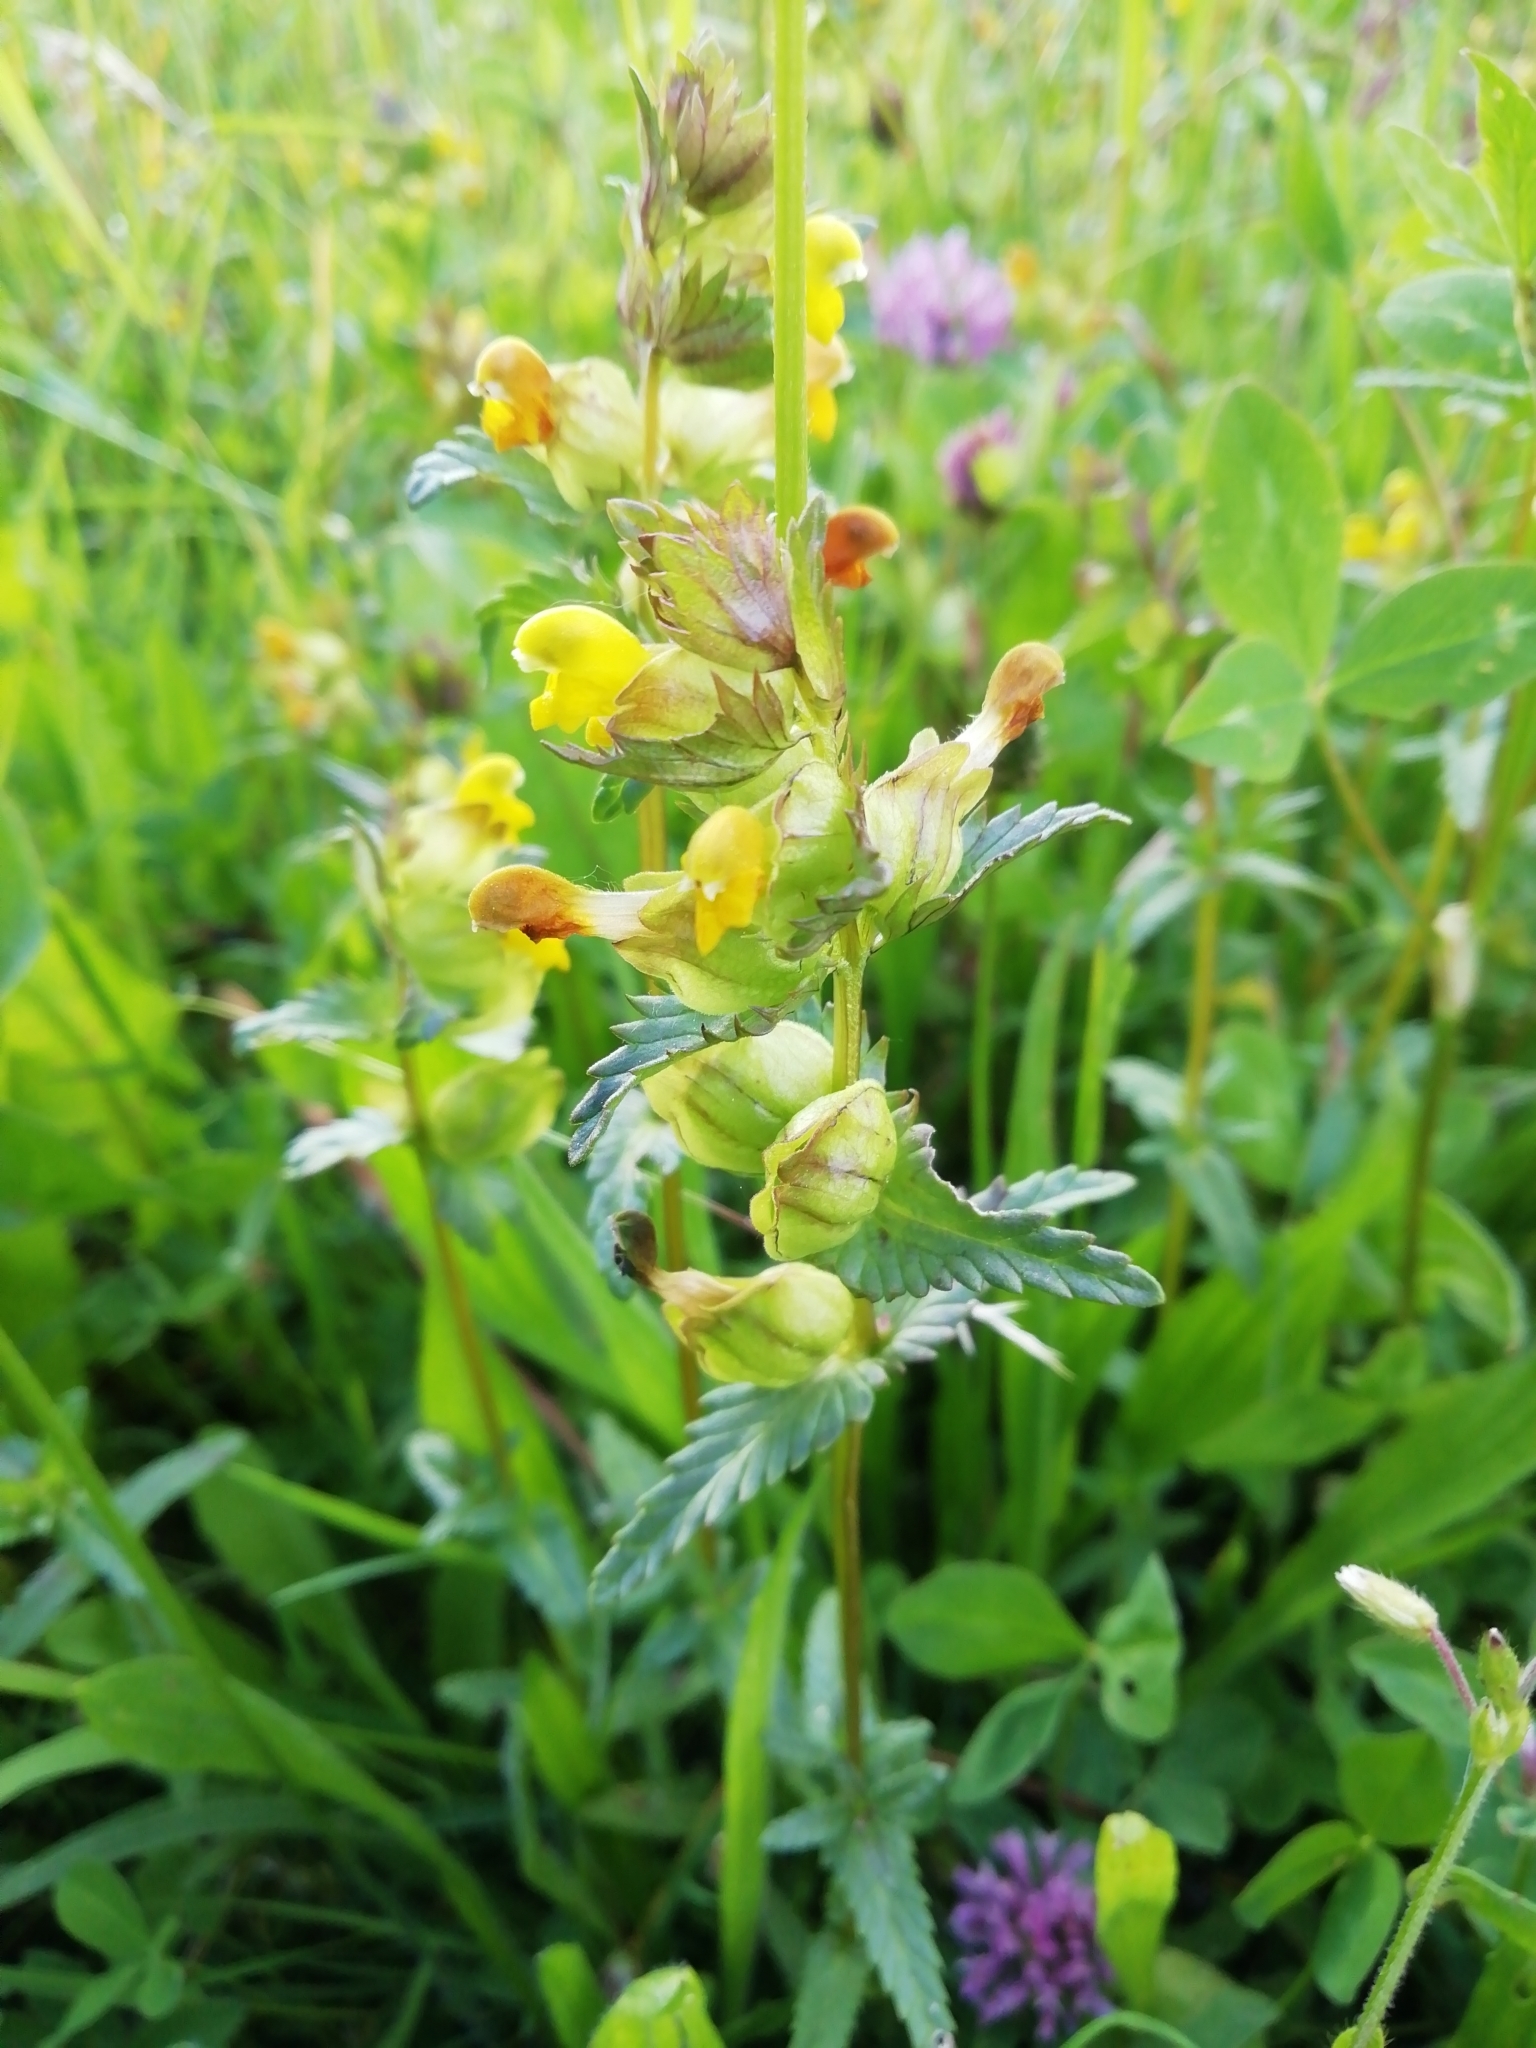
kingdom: Plantae
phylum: Tracheophyta
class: Magnoliopsida
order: Lamiales
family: Orobanchaceae
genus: Rhinanthus
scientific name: Rhinanthus minor
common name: Yellow-rattle
